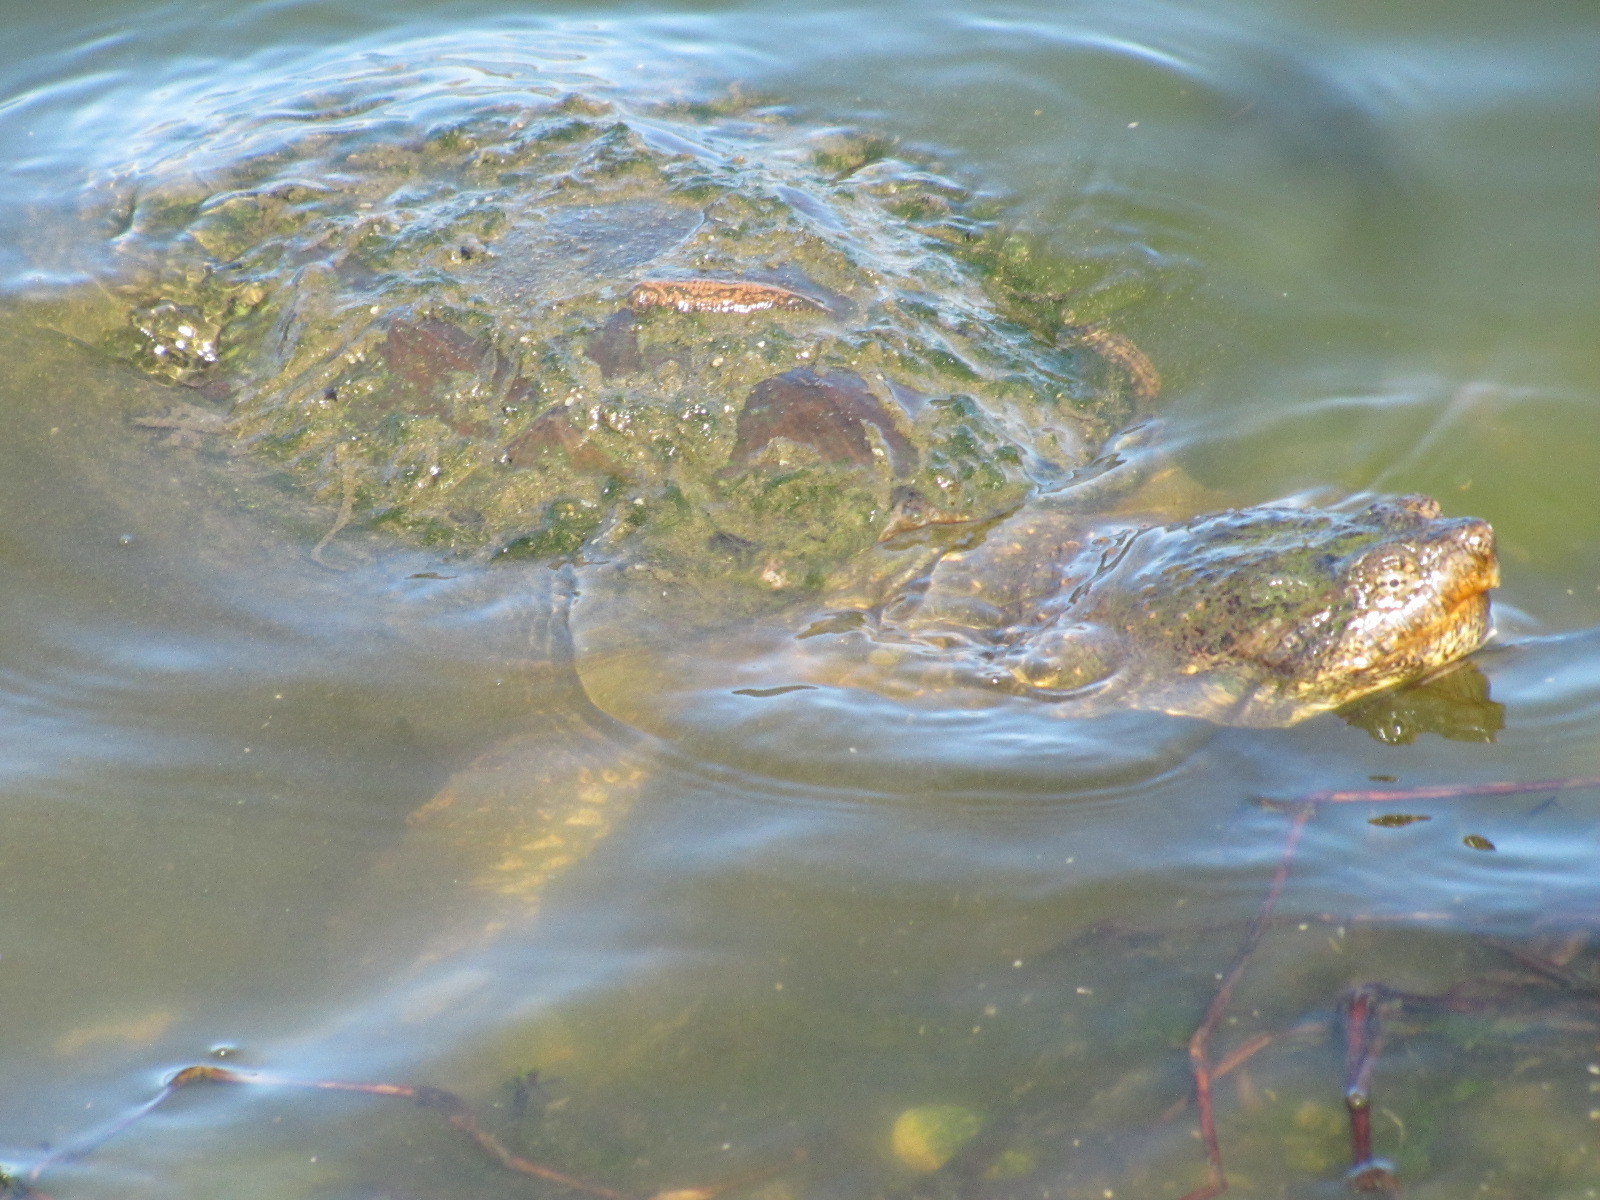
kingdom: Animalia
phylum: Chordata
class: Testudines
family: Chelydridae
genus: Chelydra
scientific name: Chelydra serpentina
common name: Common snapping turtle
